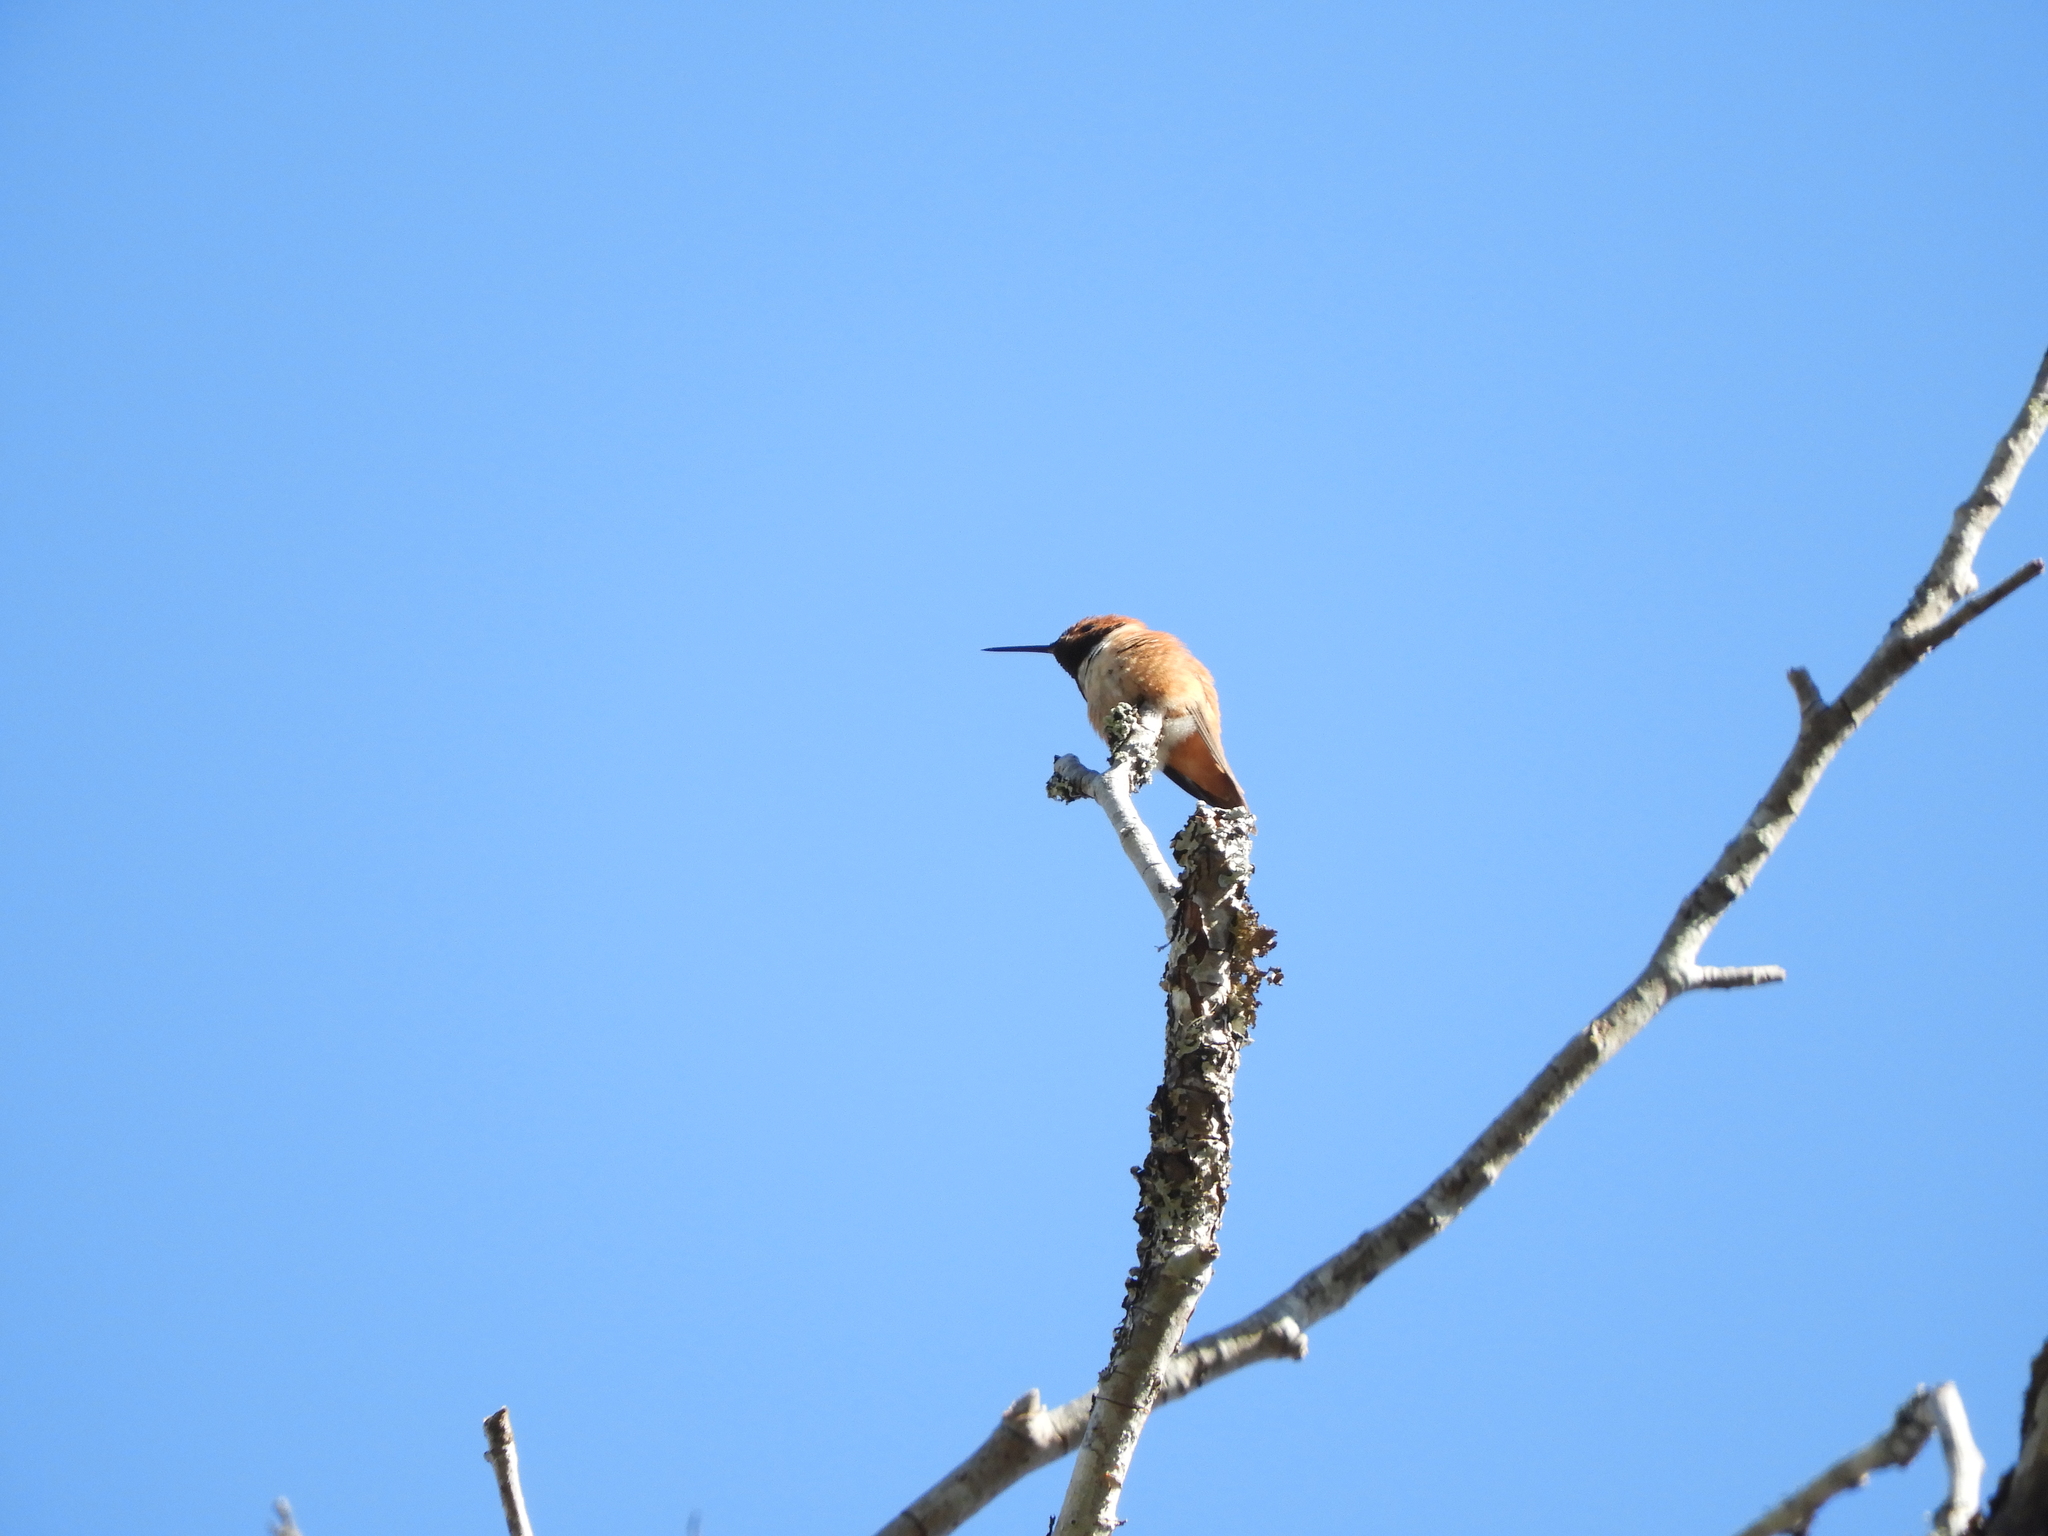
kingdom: Animalia
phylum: Chordata
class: Aves
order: Apodiformes
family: Trochilidae
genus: Selasphorus
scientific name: Selasphorus rufus
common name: Rufous hummingbird
